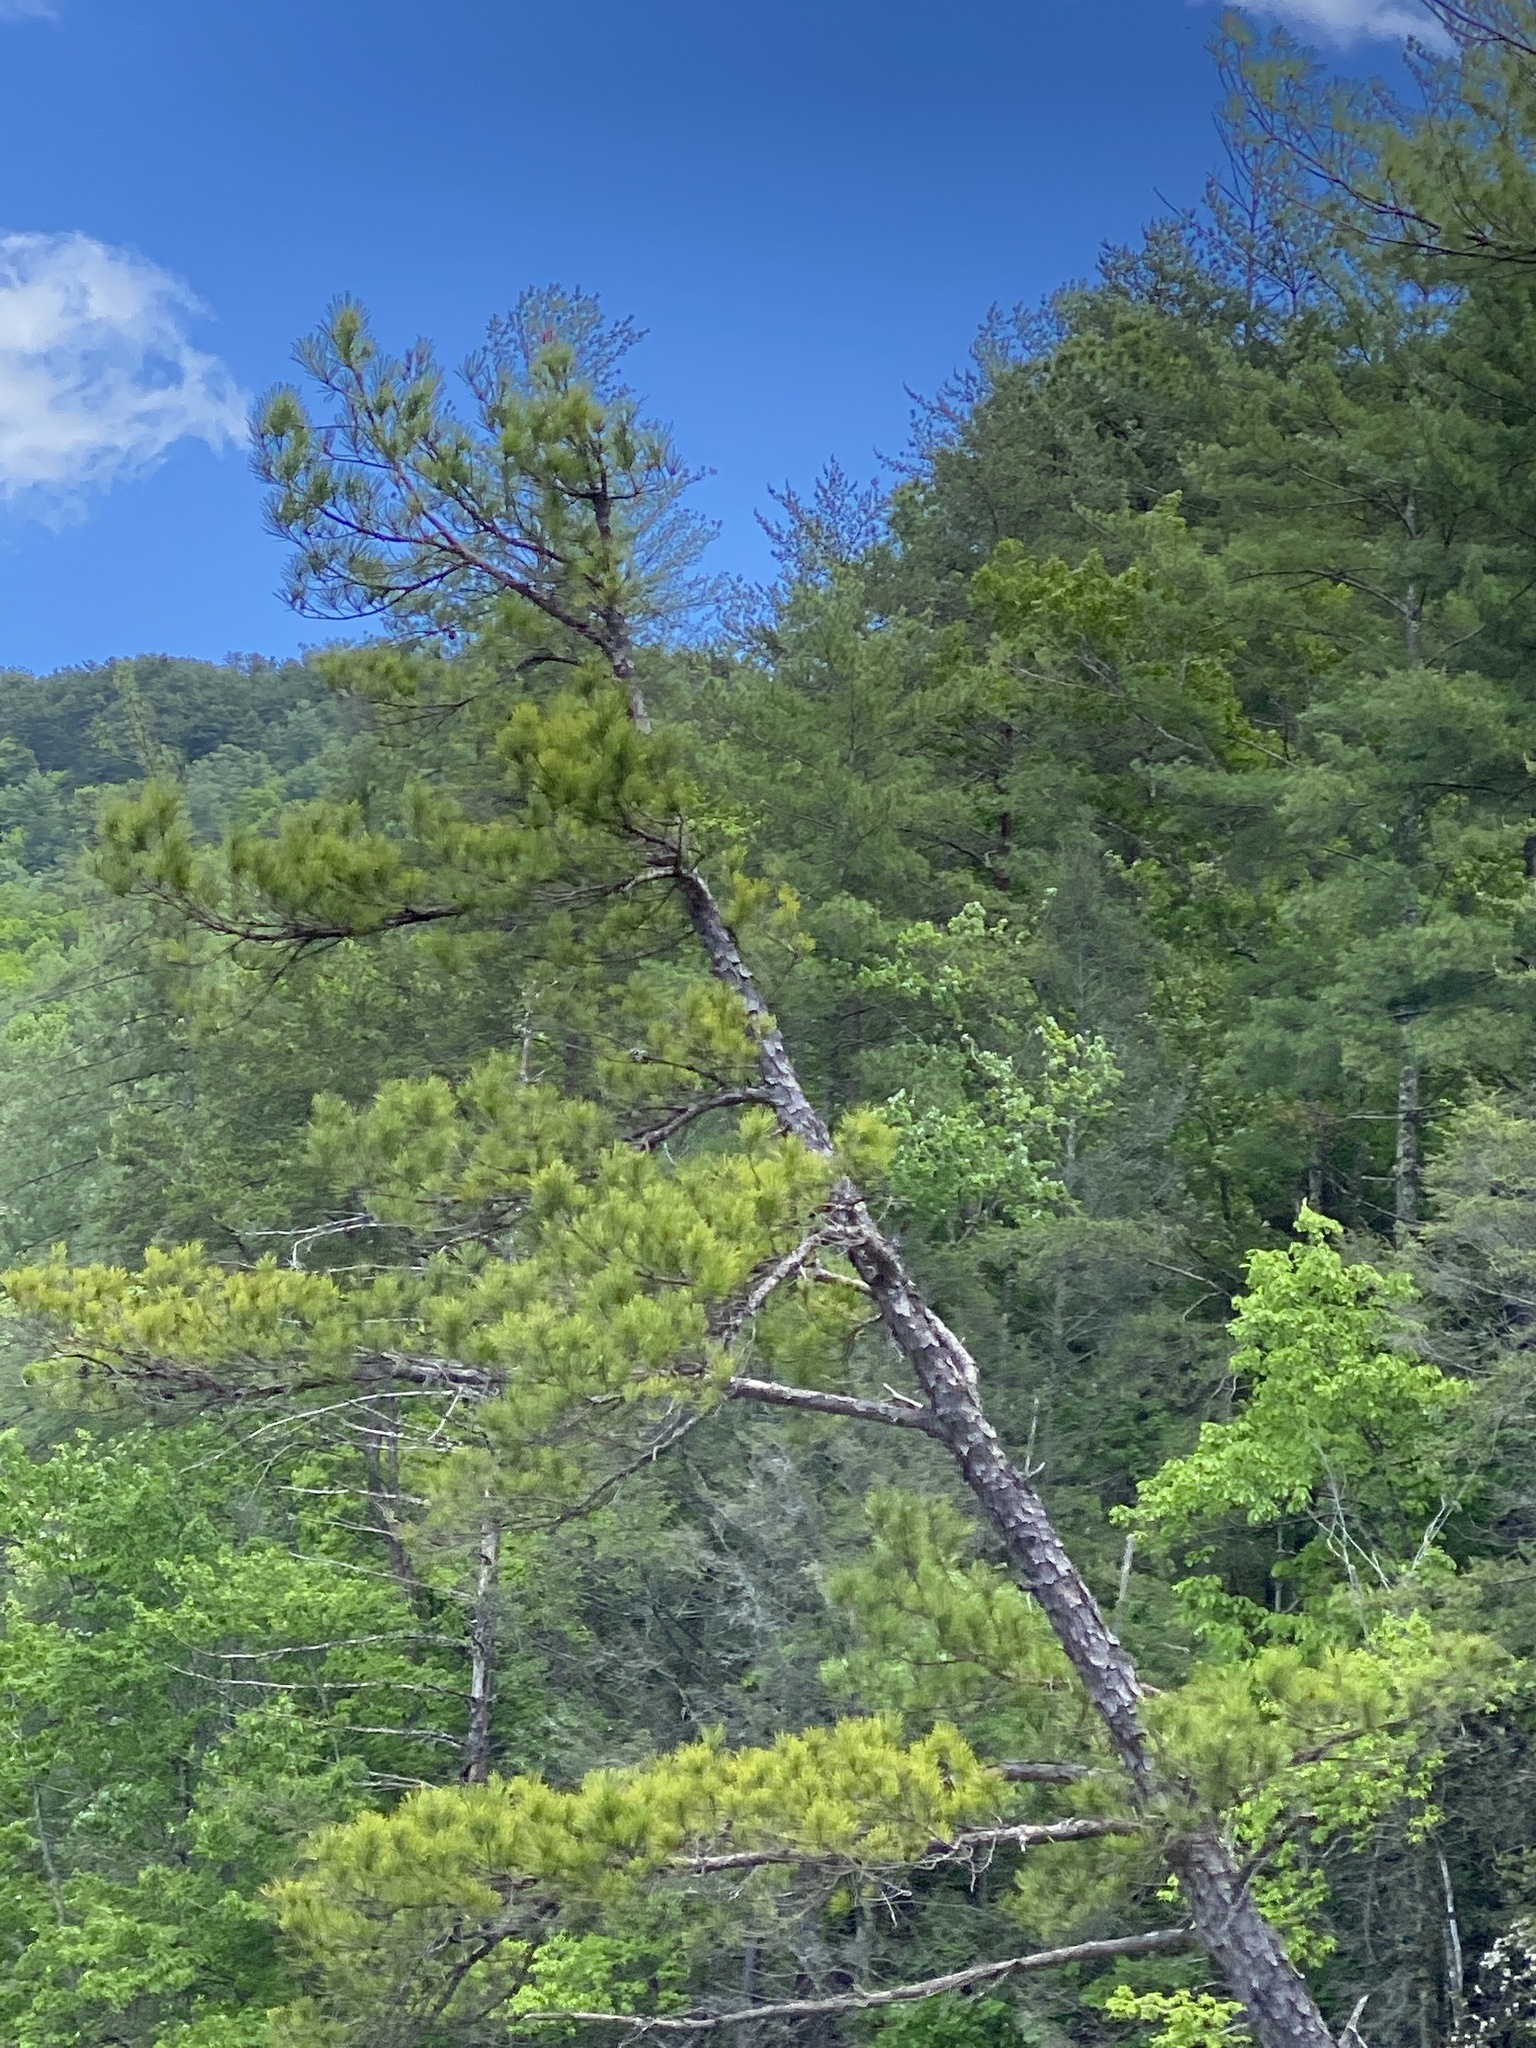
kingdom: Plantae
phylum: Tracheophyta
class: Pinopsida
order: Pinales
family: Pinaceae
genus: Pinus
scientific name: Pinus rigida
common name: Pitch pine
